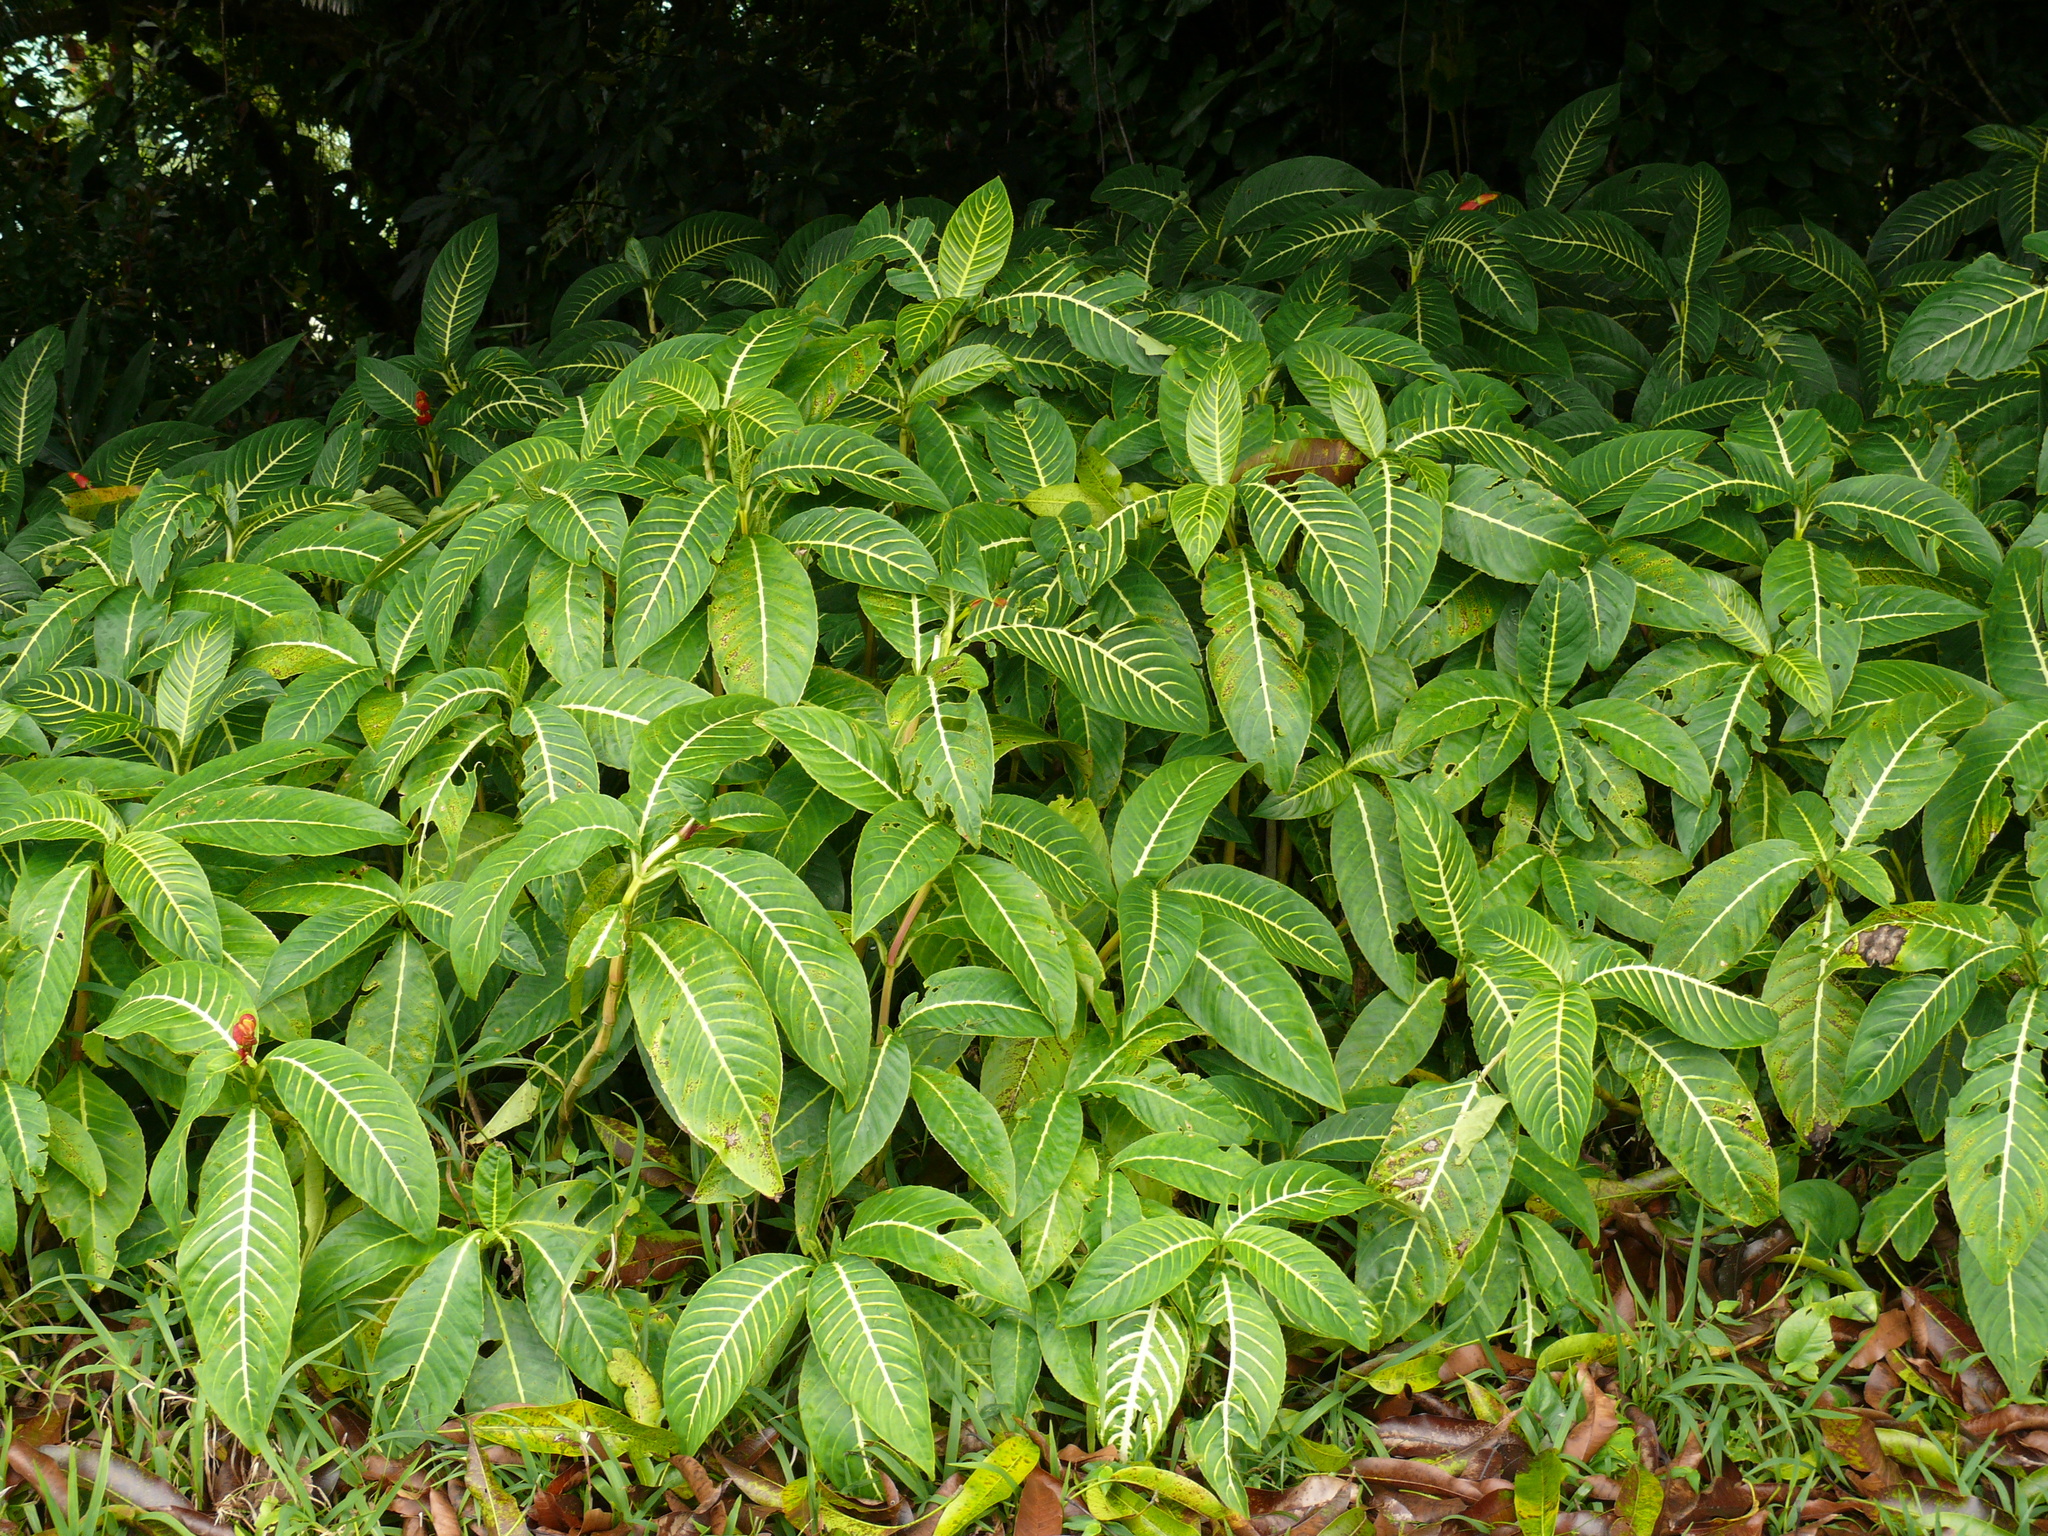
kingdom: Plantae
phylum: Tracheophyta
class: Magnoliopsida
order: Lamiales
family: Acanthaceae
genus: Sanchezia
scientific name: Sanchezia parvibracteata
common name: Sanchezia
